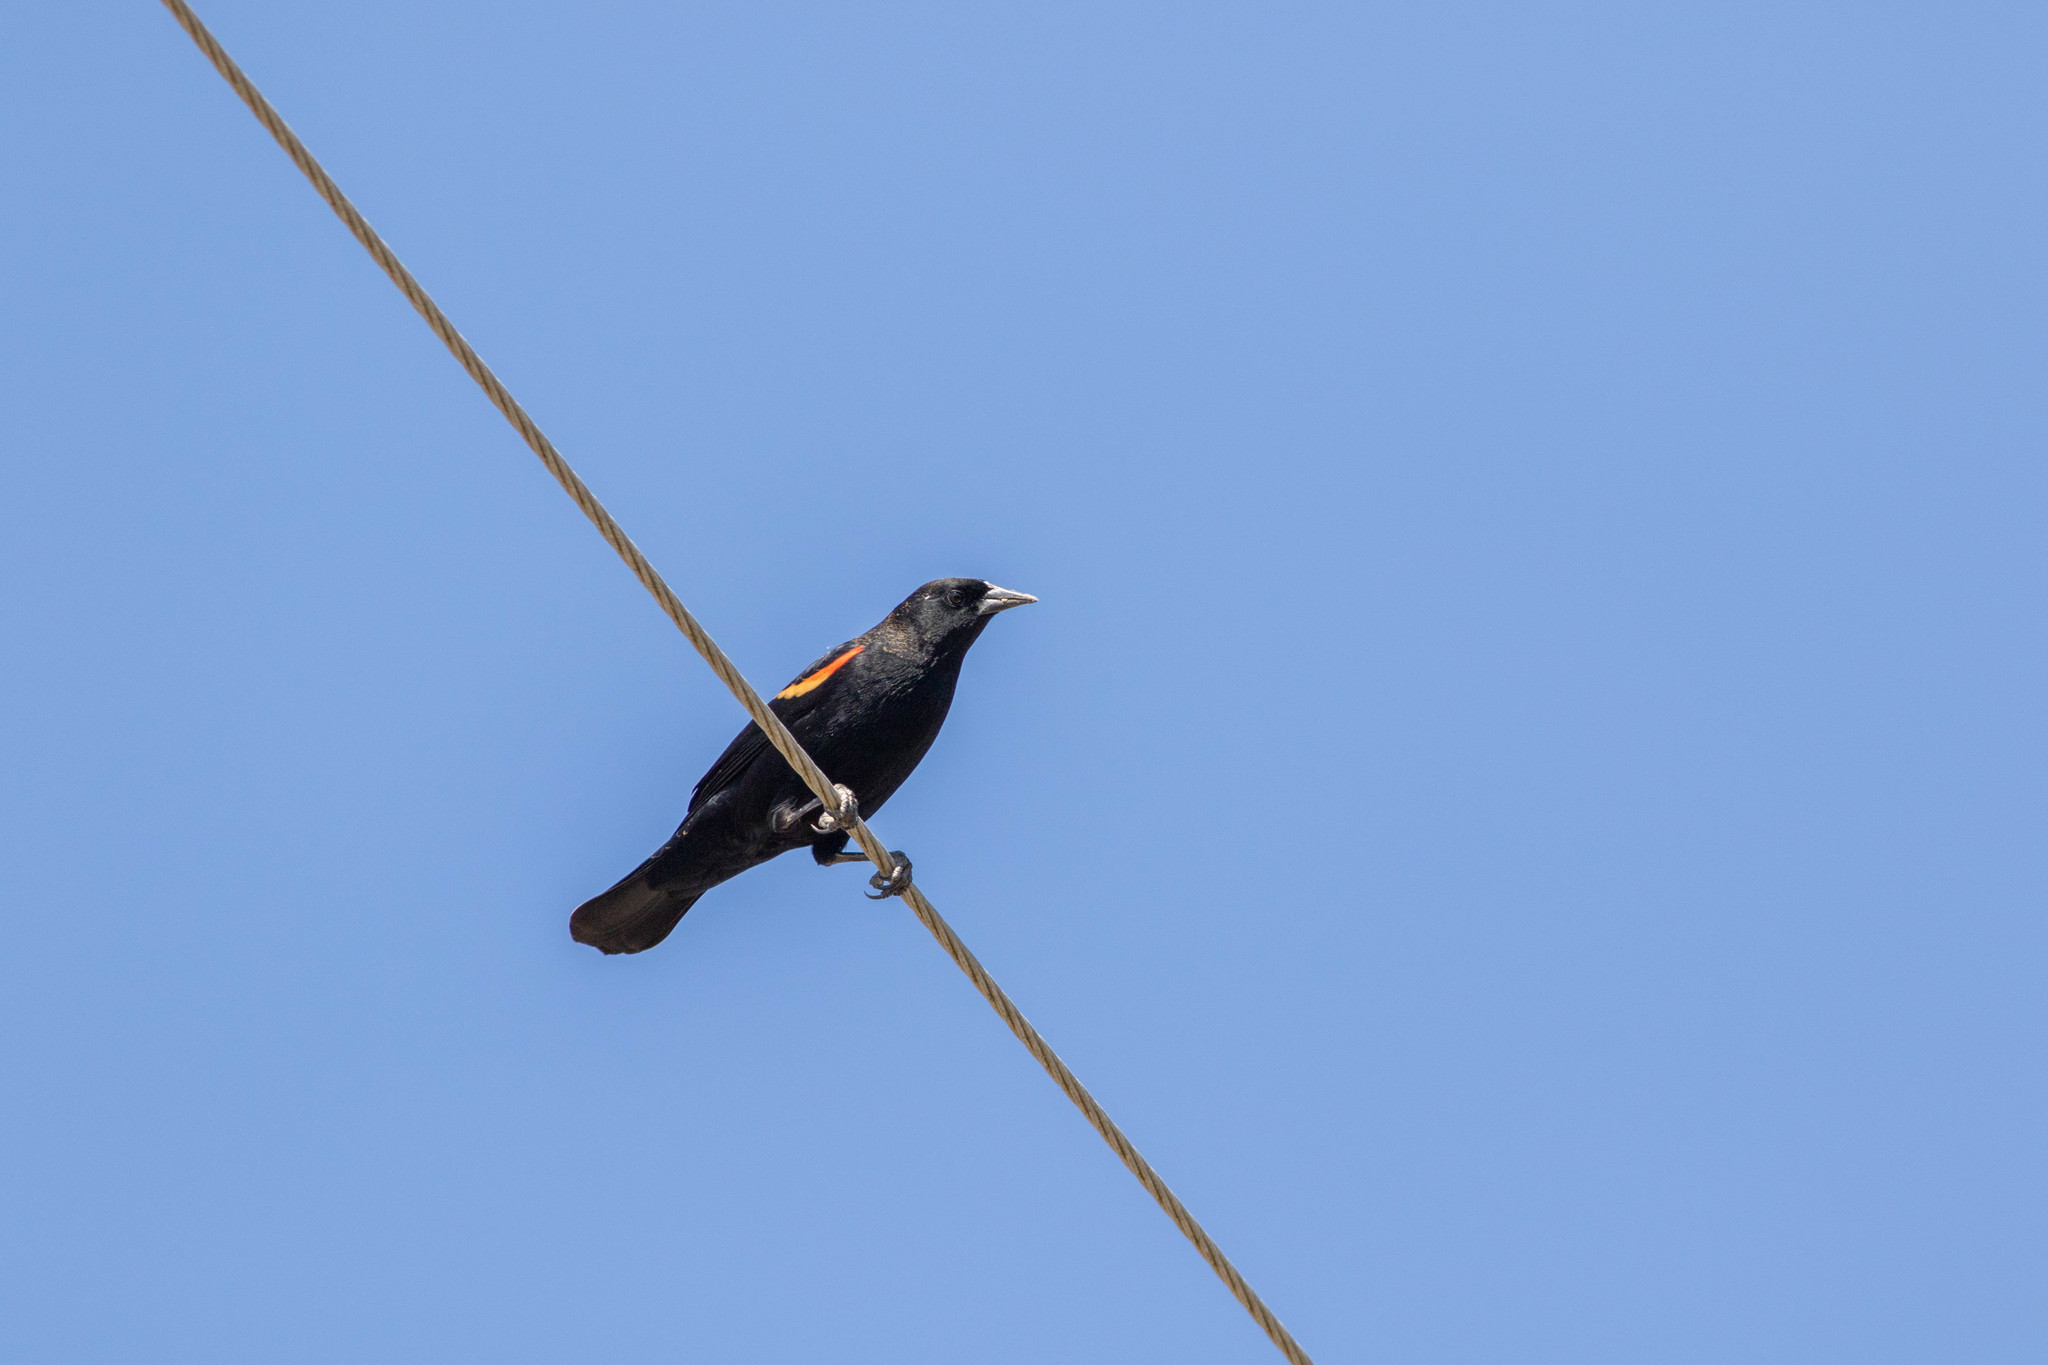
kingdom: Animalia
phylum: Chordata
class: Aves
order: Passeriformes
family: Icteridae
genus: Agelaius
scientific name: Agelaius phoeniceus
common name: Red-winged blackbird
